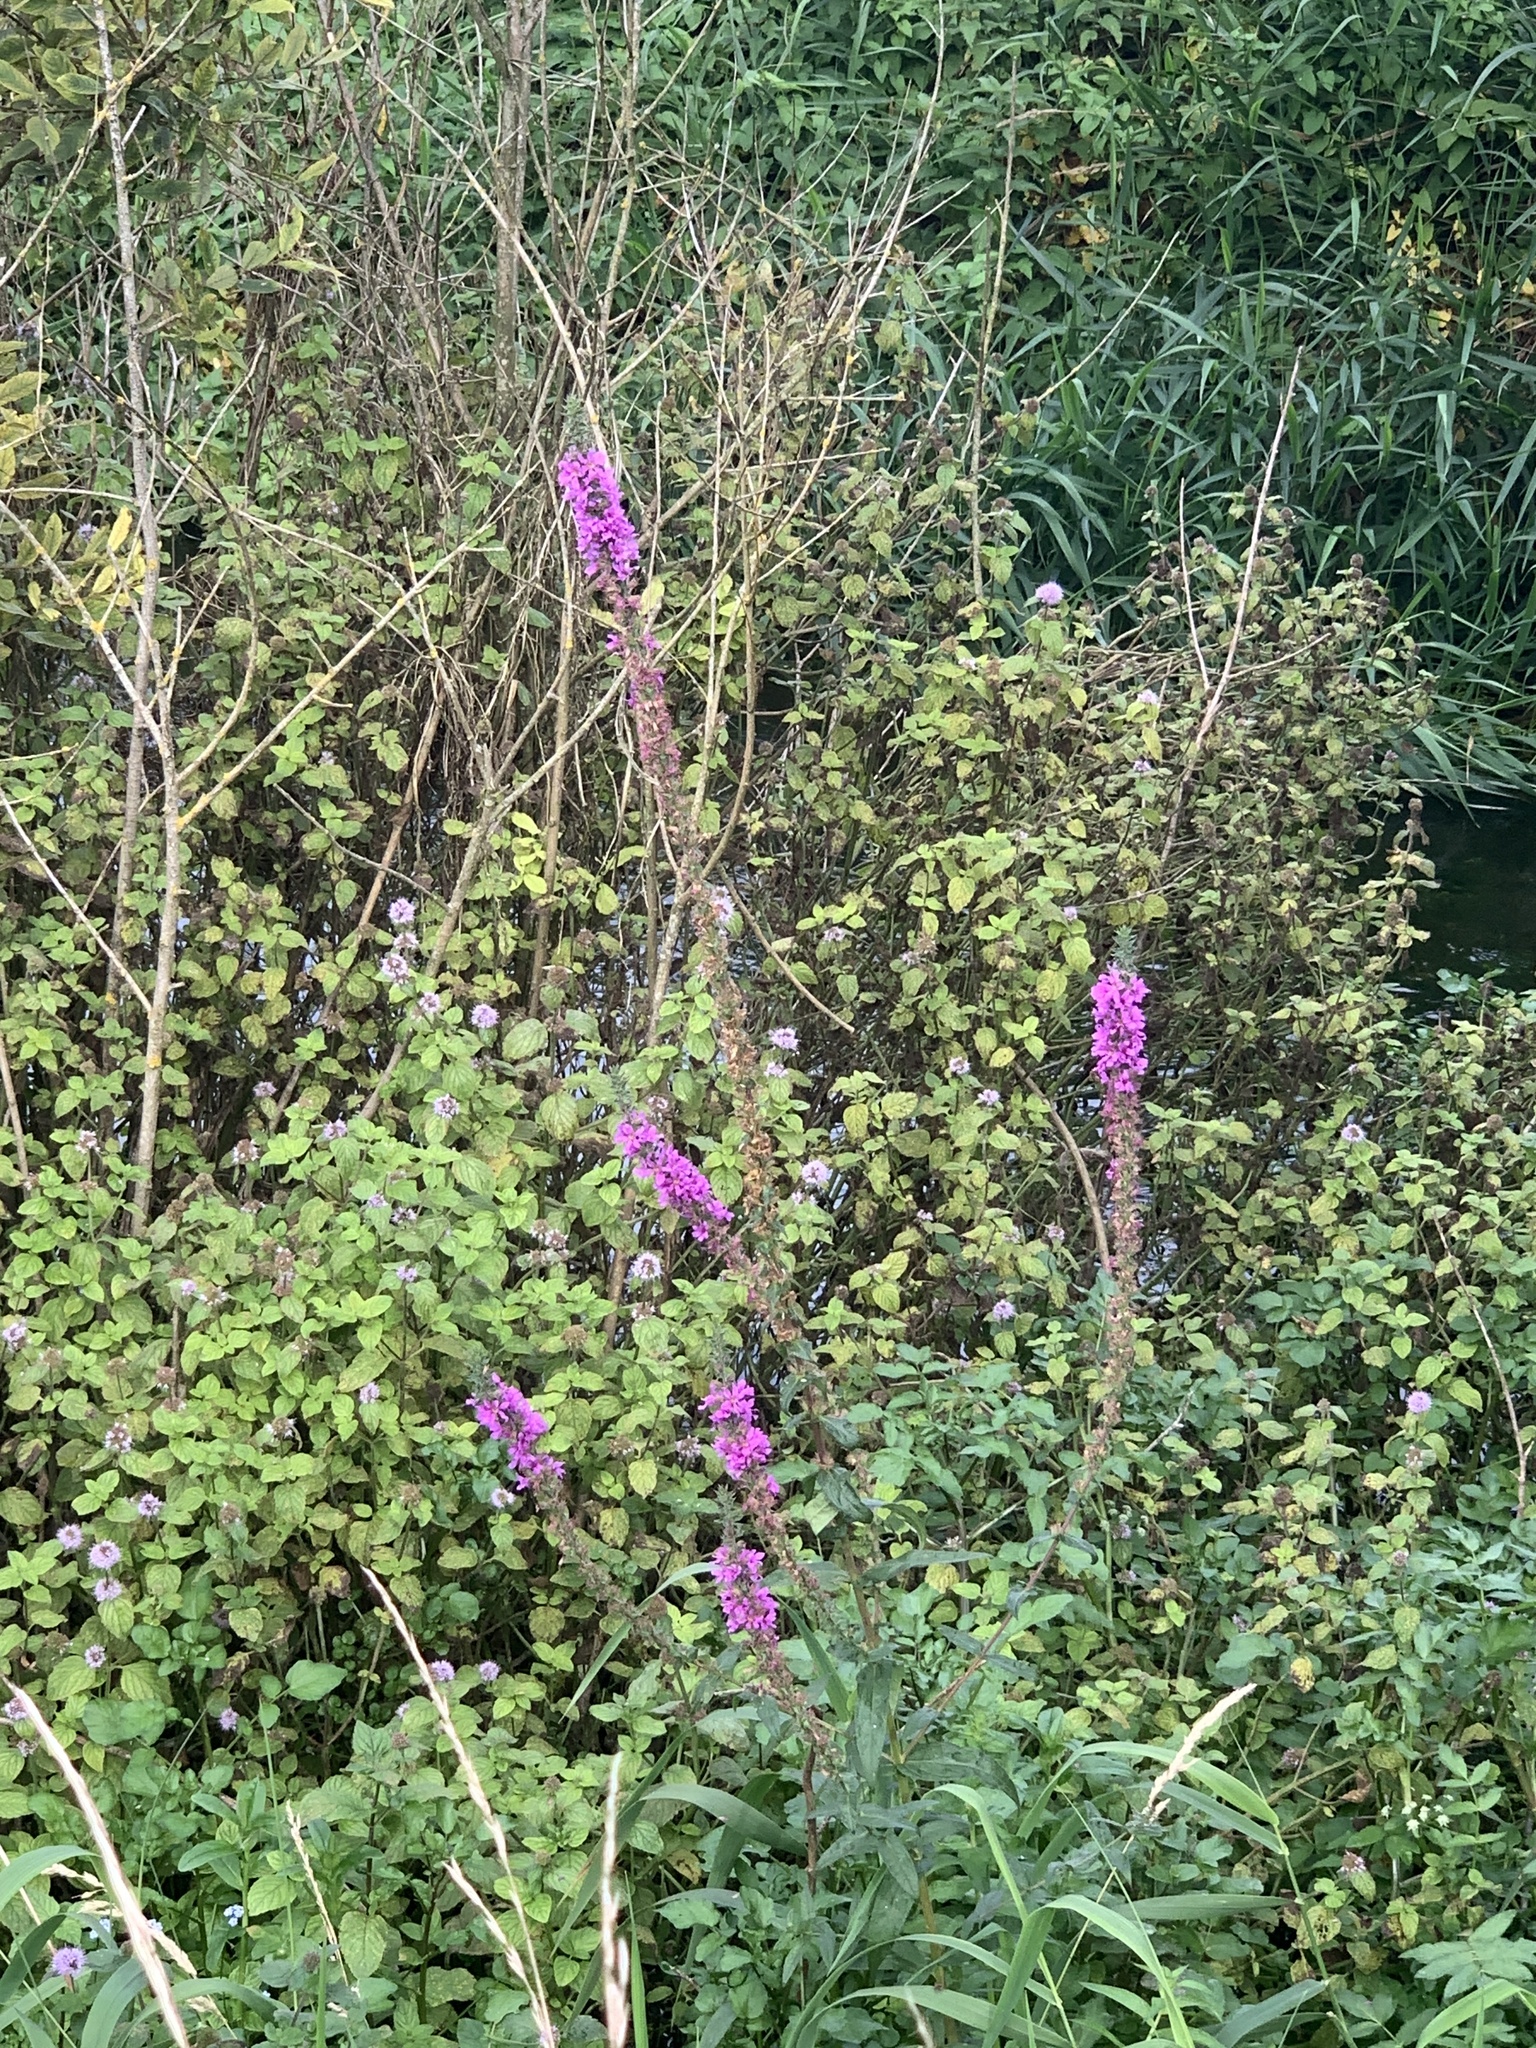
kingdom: Plantae
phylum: Tracheophyta
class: Magnoliopsida
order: Myrtales
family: Lythraceae
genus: Lythrum
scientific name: Lythrum salicaria
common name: Purple loosestrife
